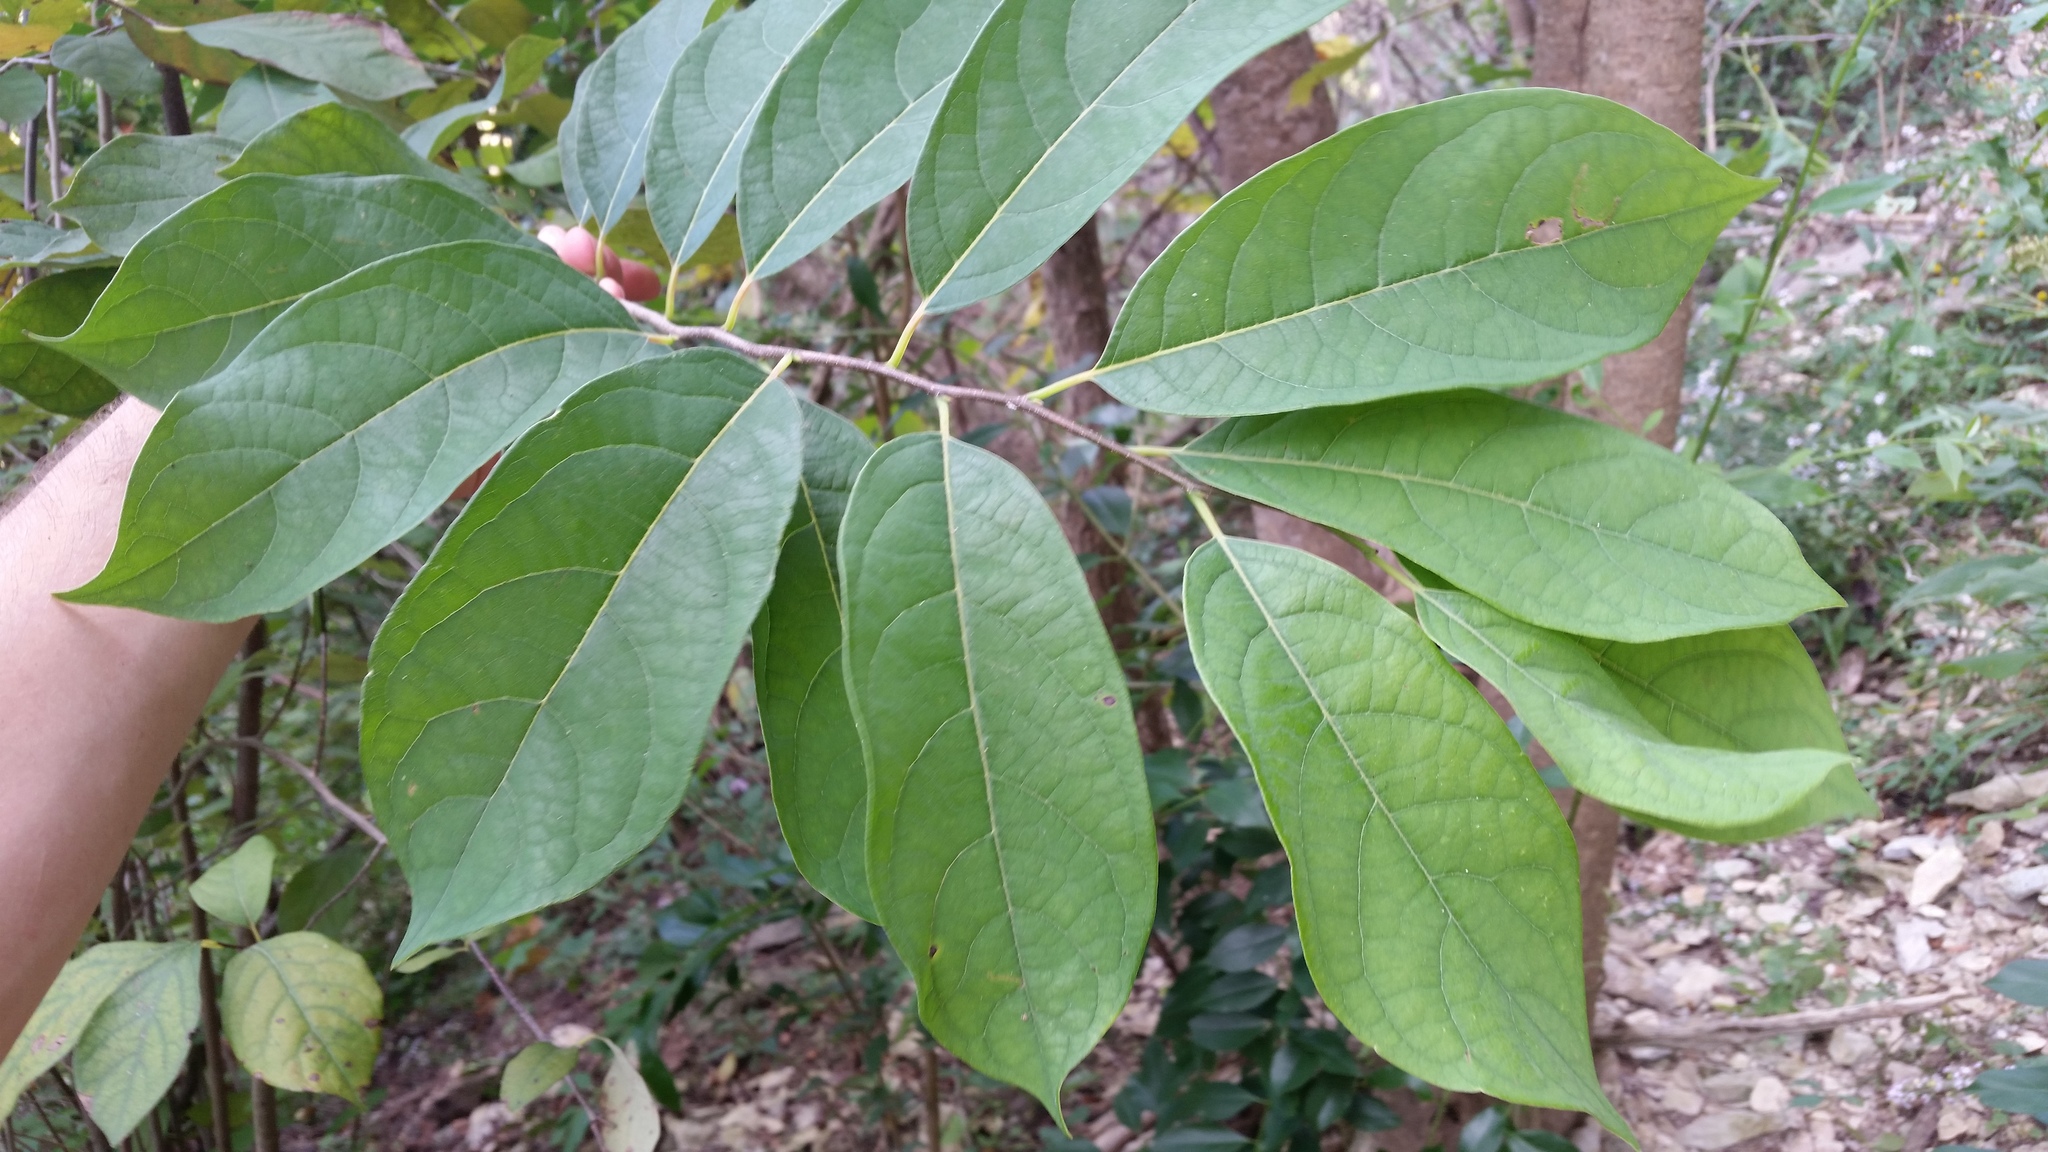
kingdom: Plantae
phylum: Tracheophyta
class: Magnoliopsida
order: Laurales
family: Lauraceae
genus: Lindera
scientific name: Lindera benzoin
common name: Spicebush
